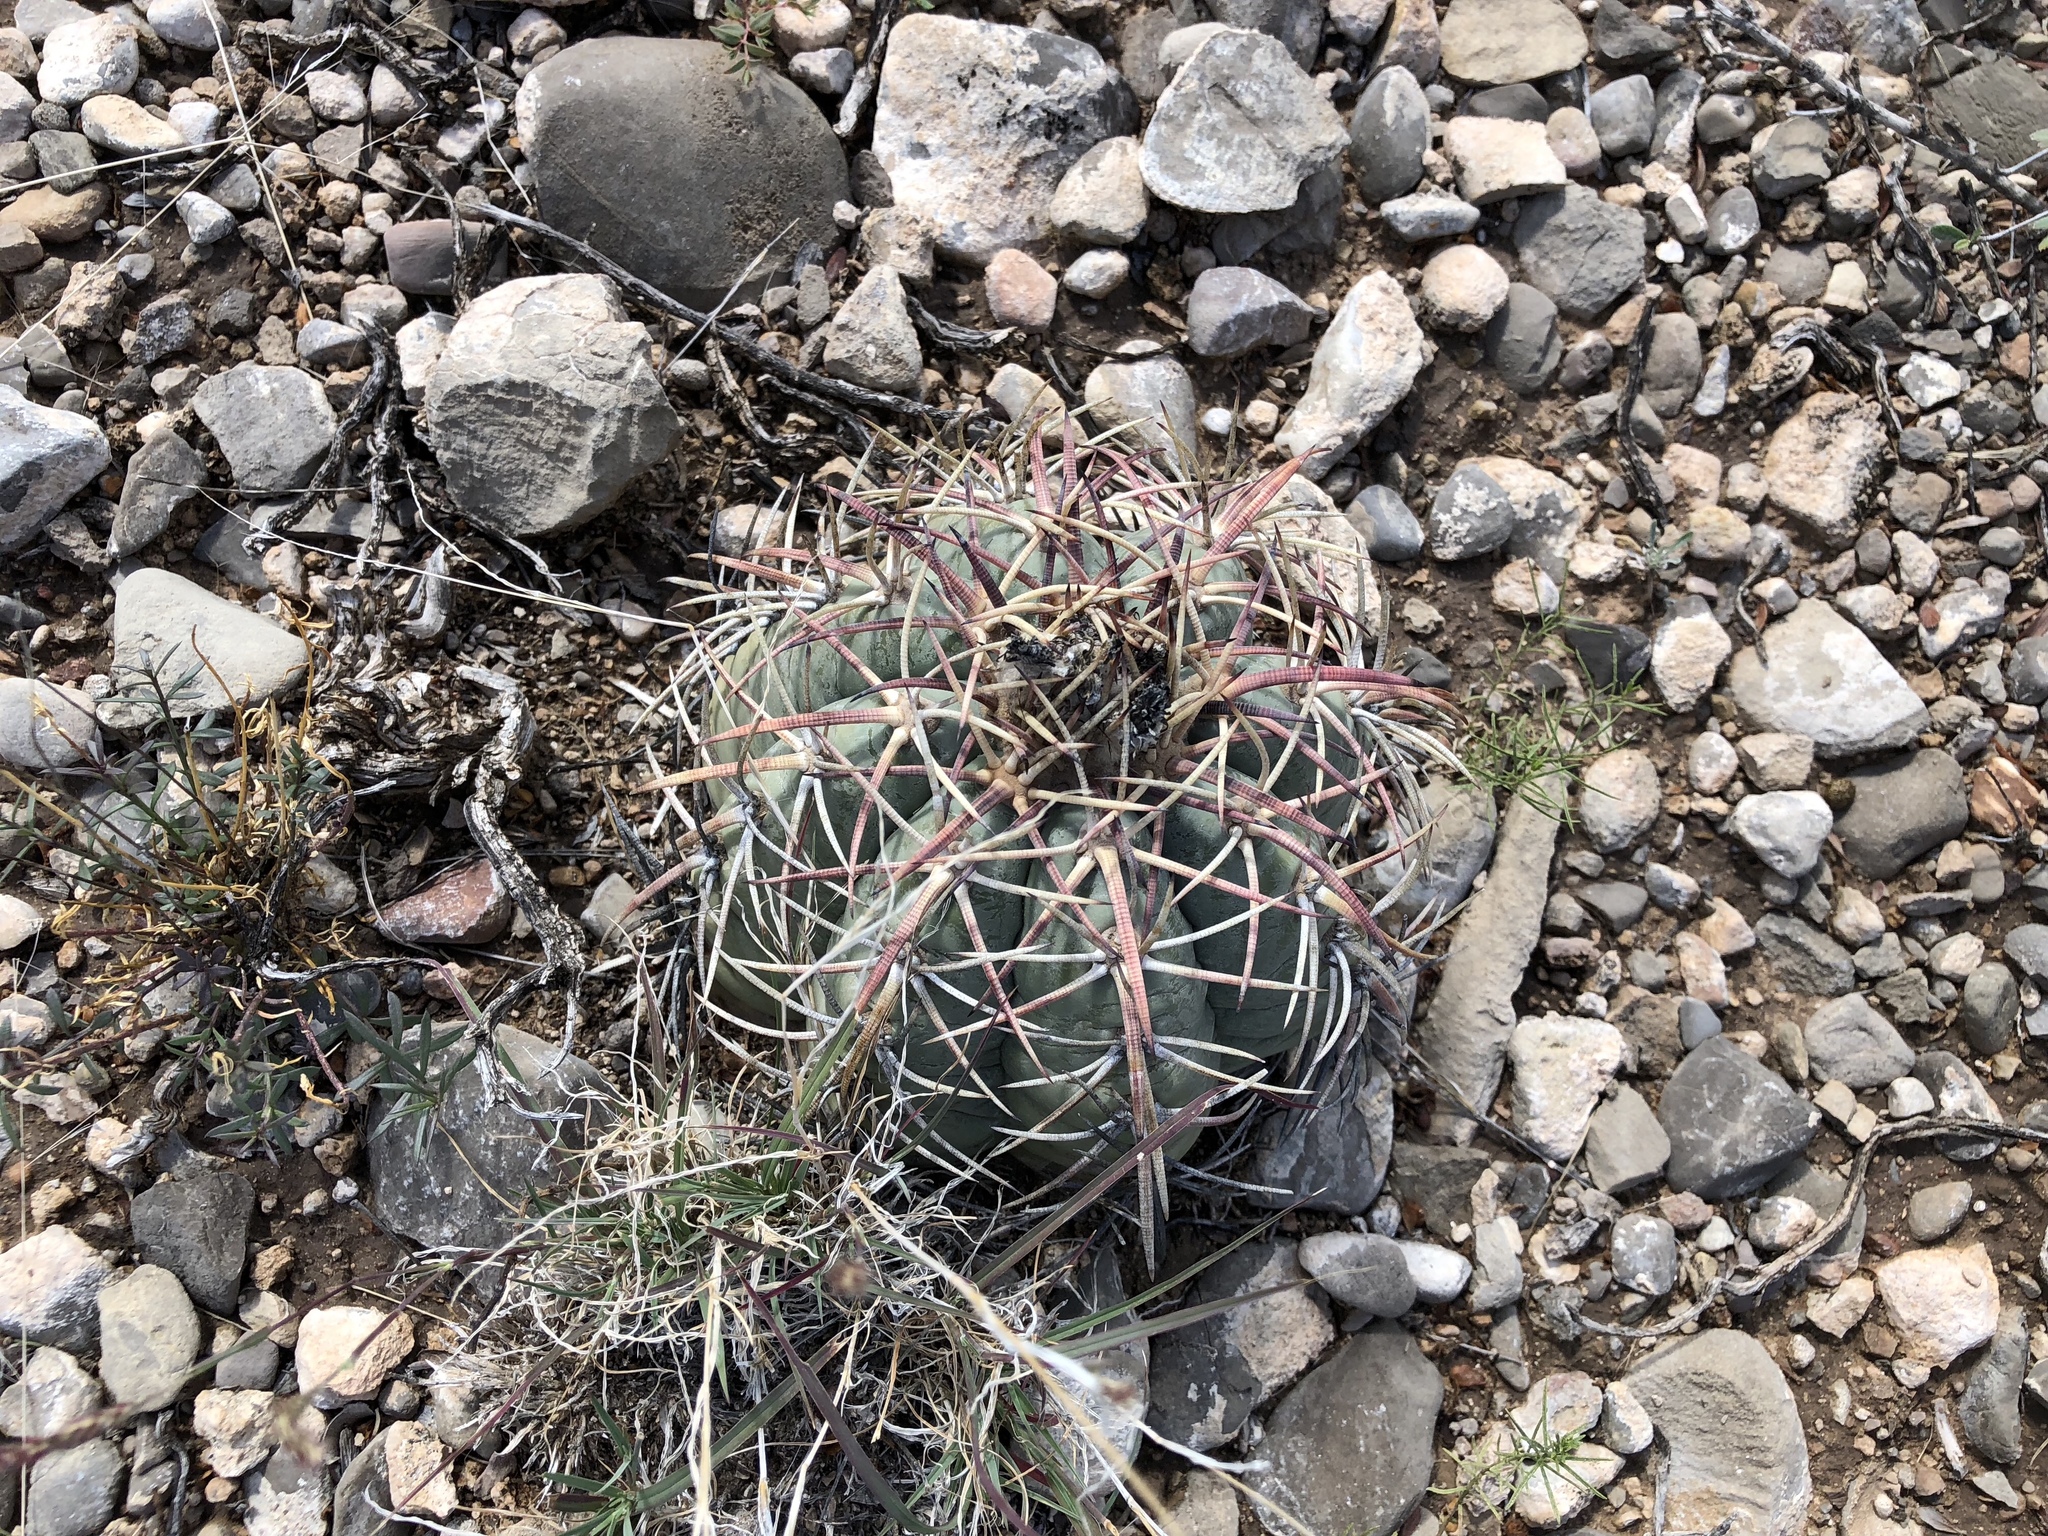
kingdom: Plantae
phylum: Tracheophyta
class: Magnoliopsida
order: Caryophyllales
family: Cactaceae
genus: Echinocactus
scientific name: Echinocactus horizonthalonius
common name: Devilshead
